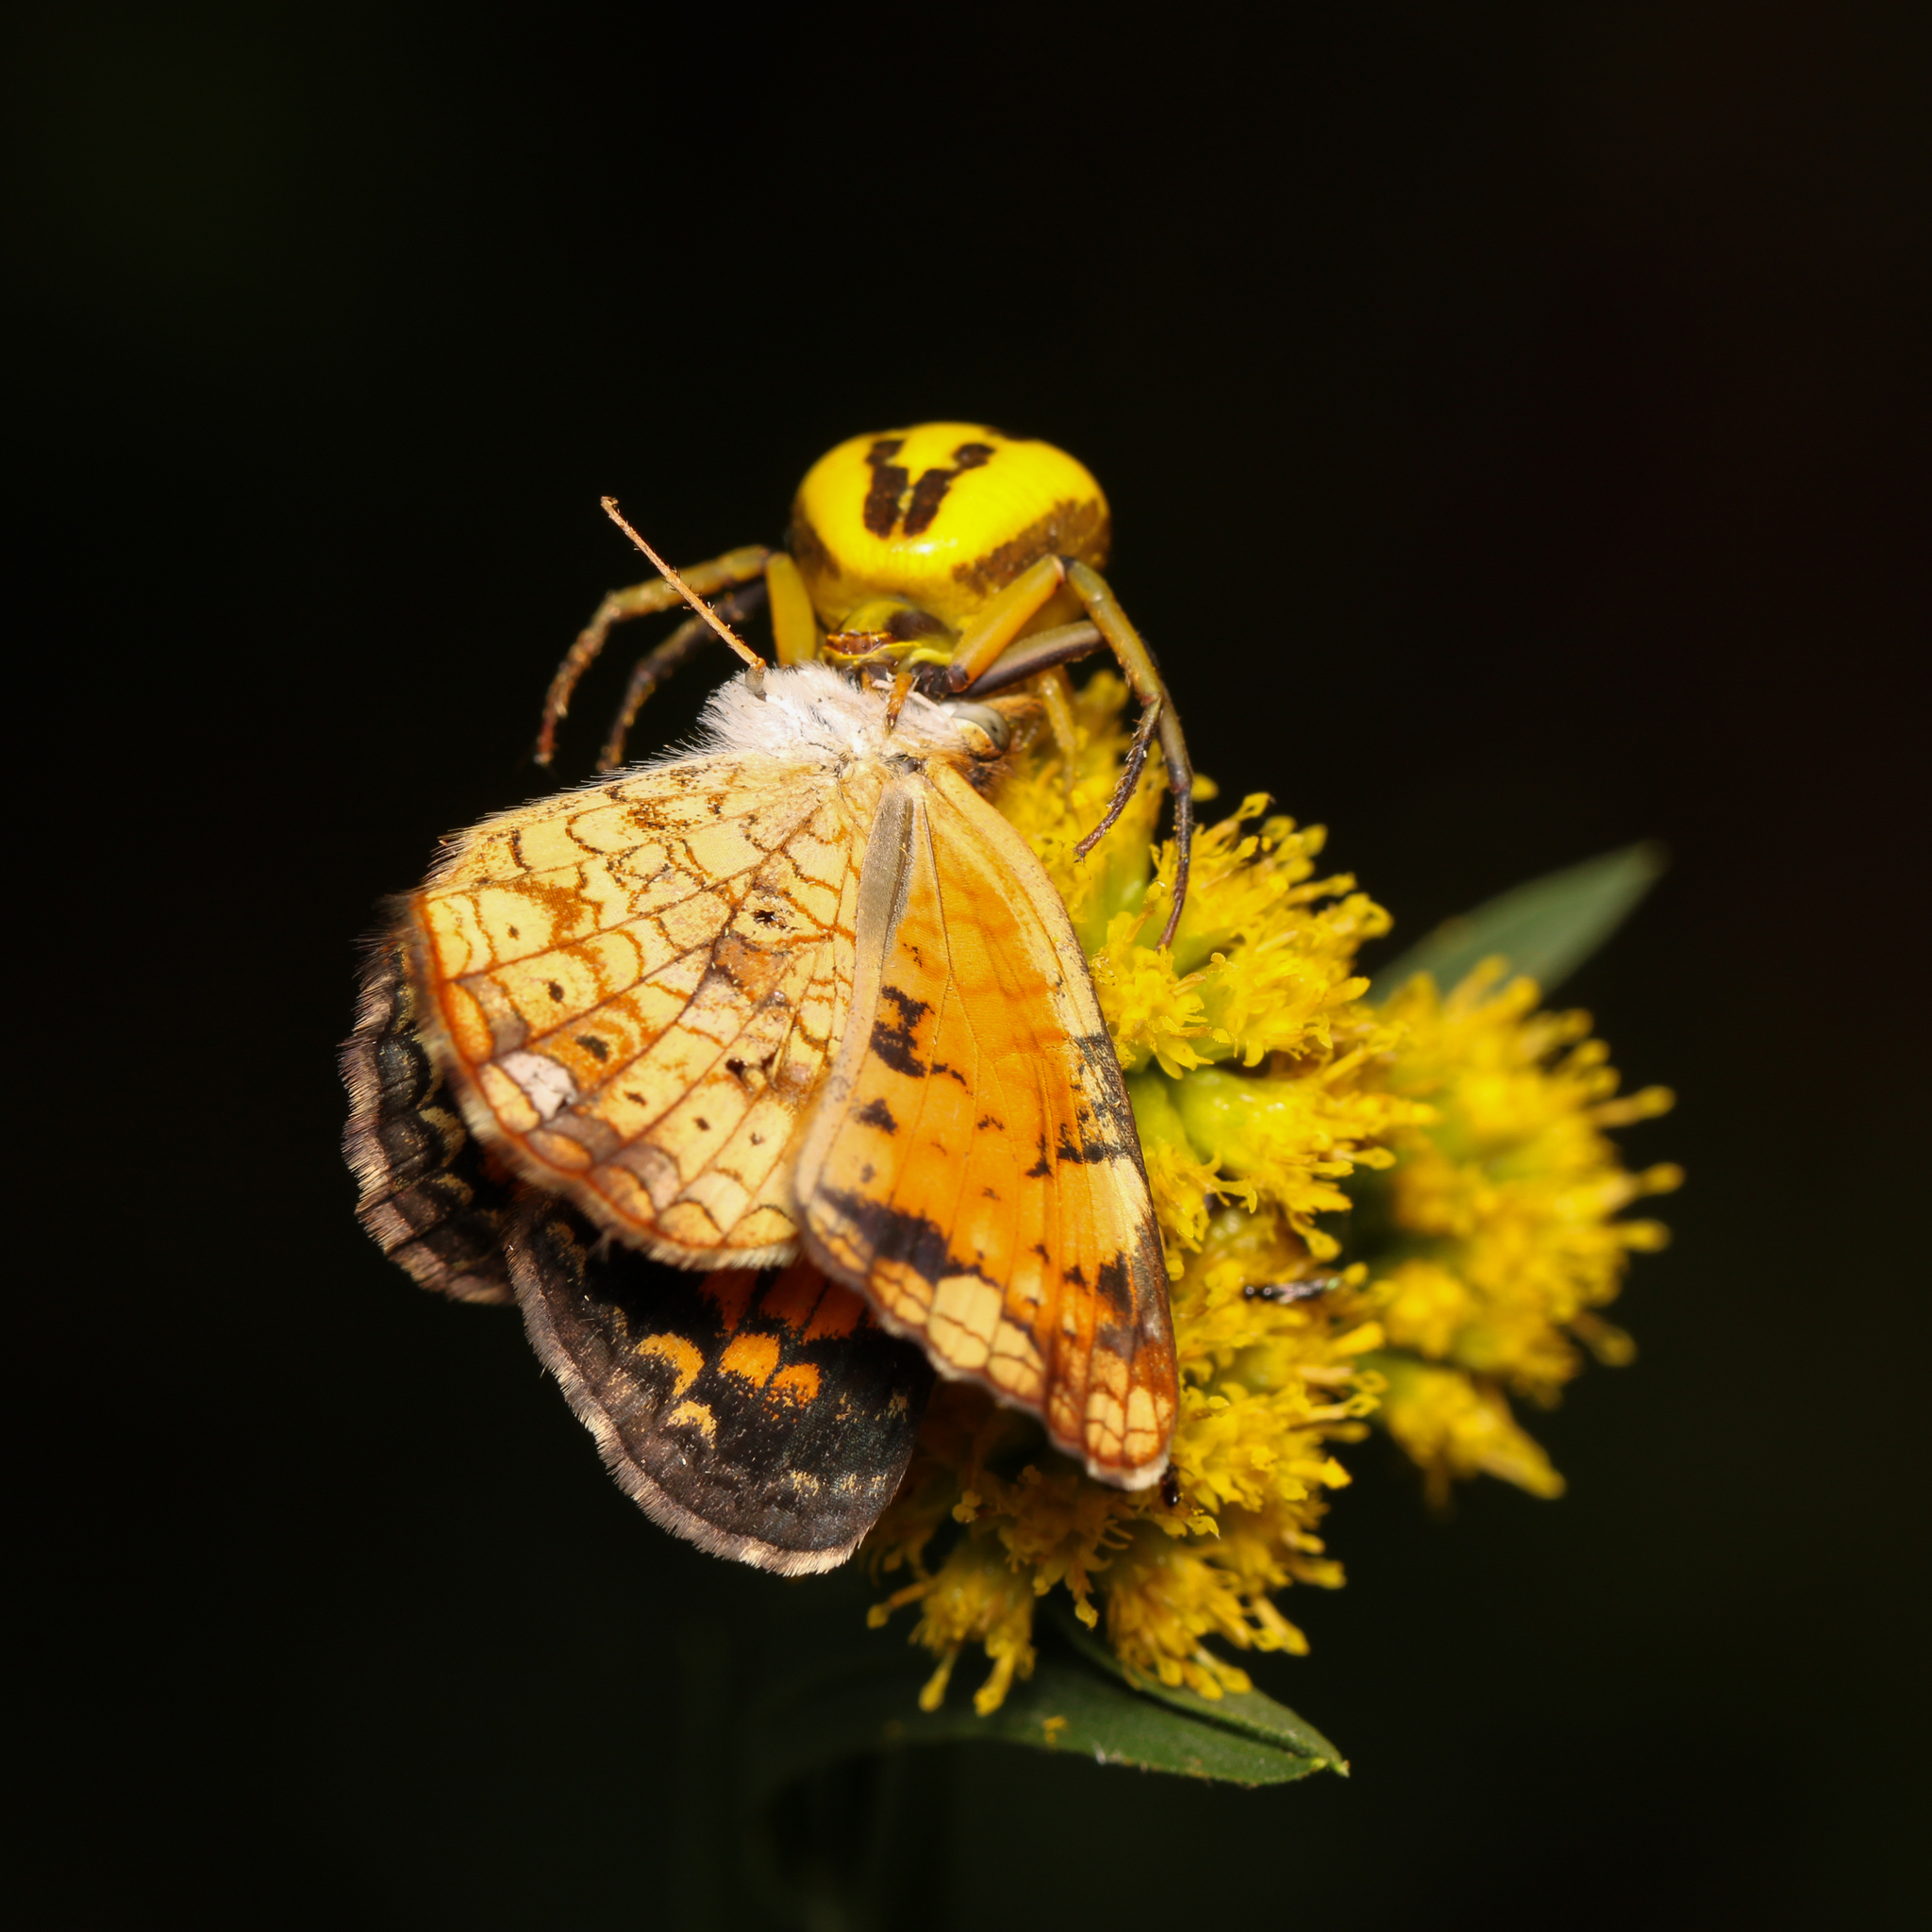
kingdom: Animalia
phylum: Arthropoda
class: Insecta
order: Lepidoptera
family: Nymphalidae
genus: Phyciodes
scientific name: Phyciodes tharos
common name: Pearl crescent
